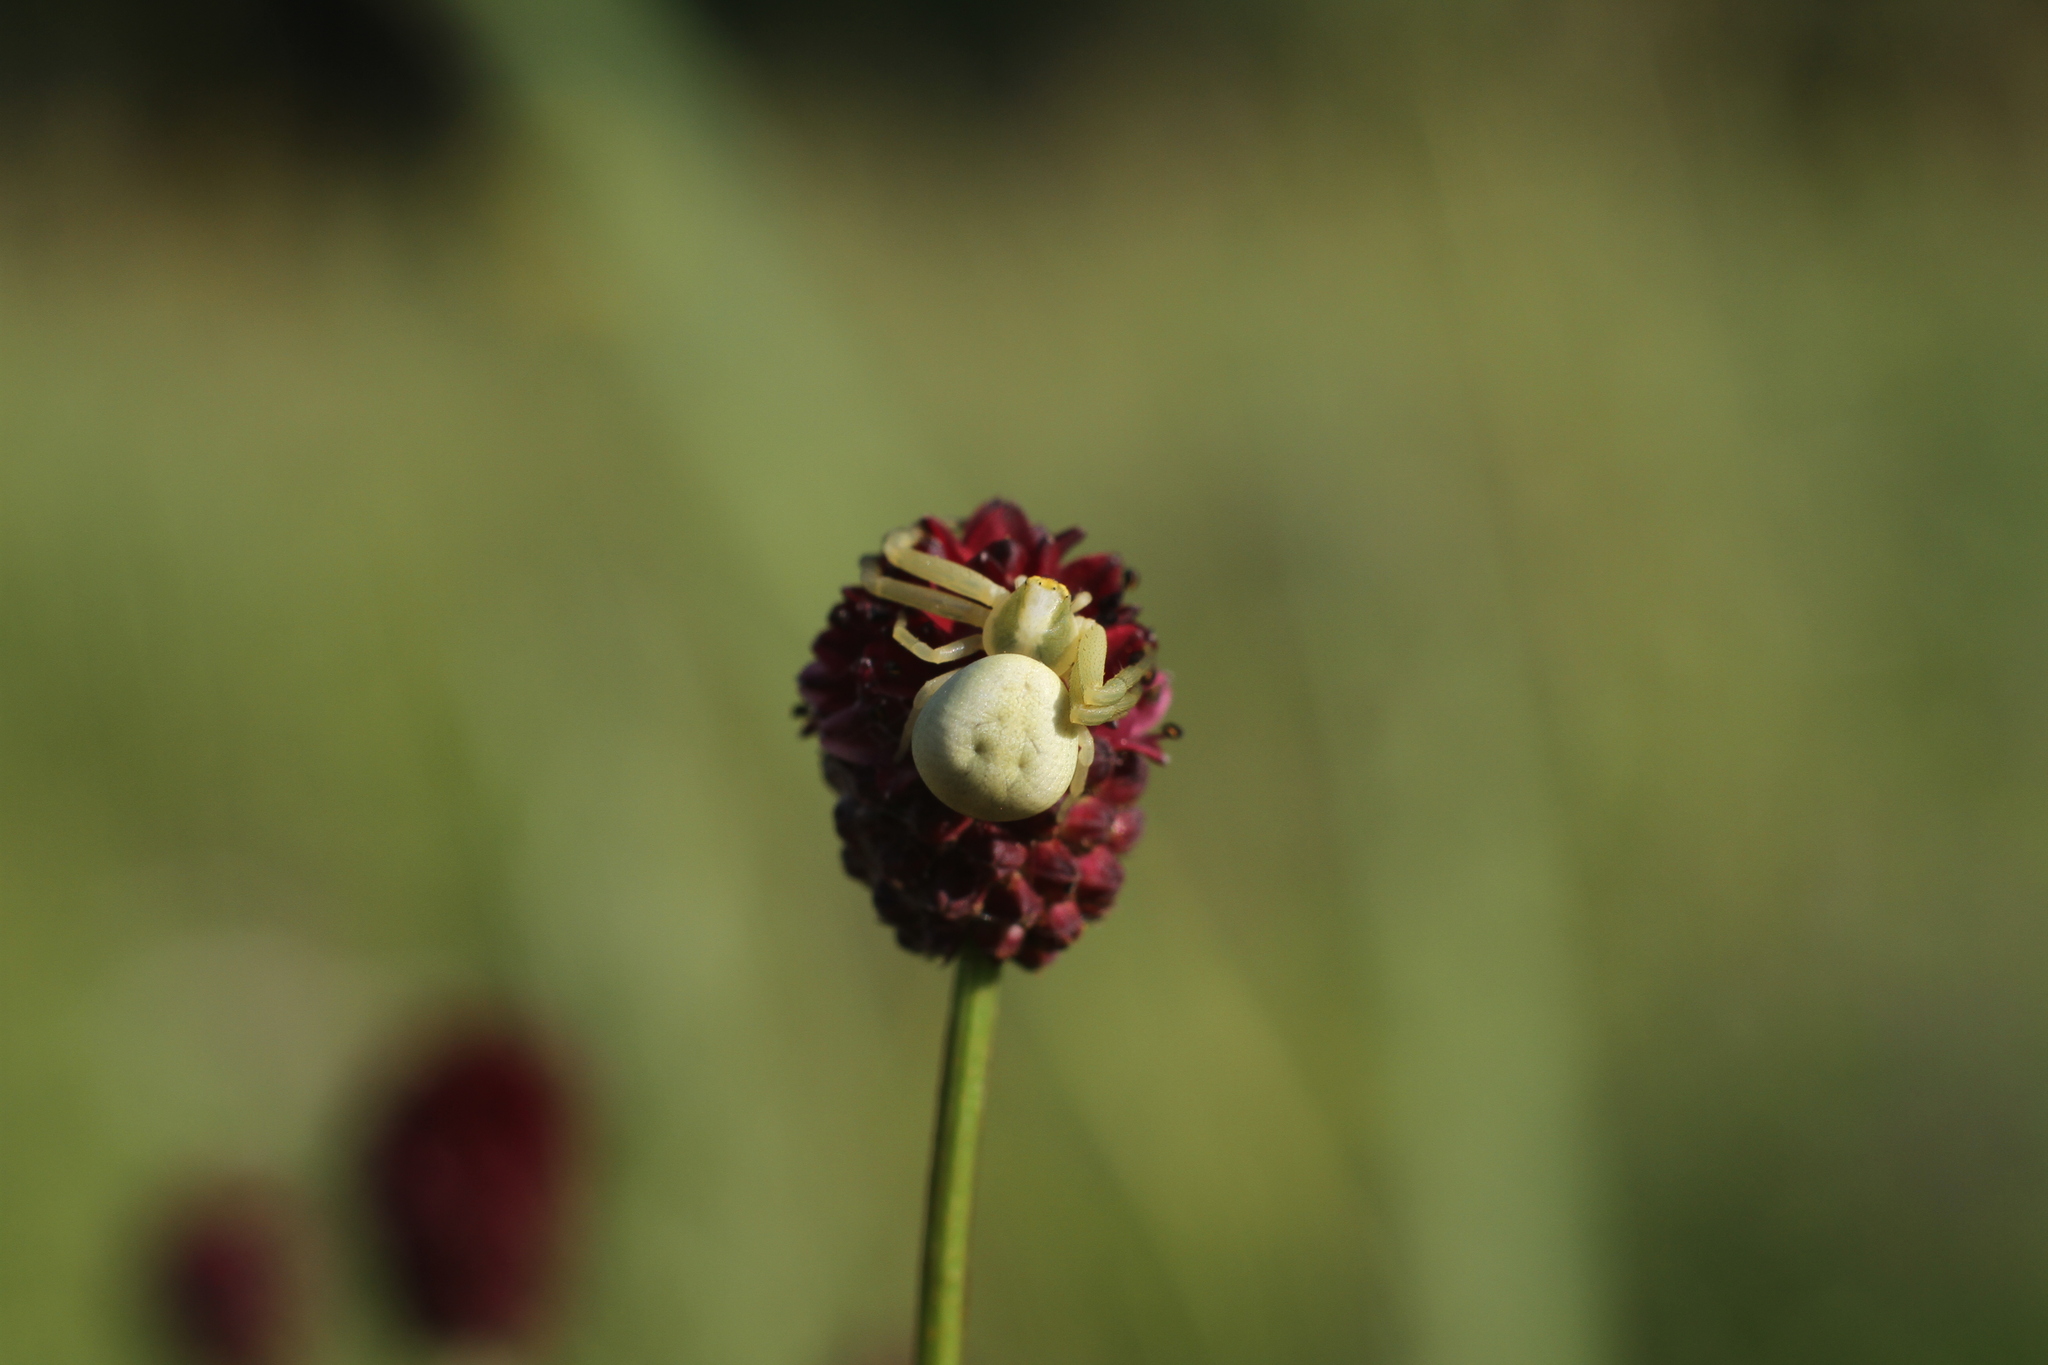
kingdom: Animalia
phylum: Arthropoda
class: Arachnida
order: Araneae
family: Thomisidae
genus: Misumena
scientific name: Misumena vatia
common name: Goldenrod crab spider
